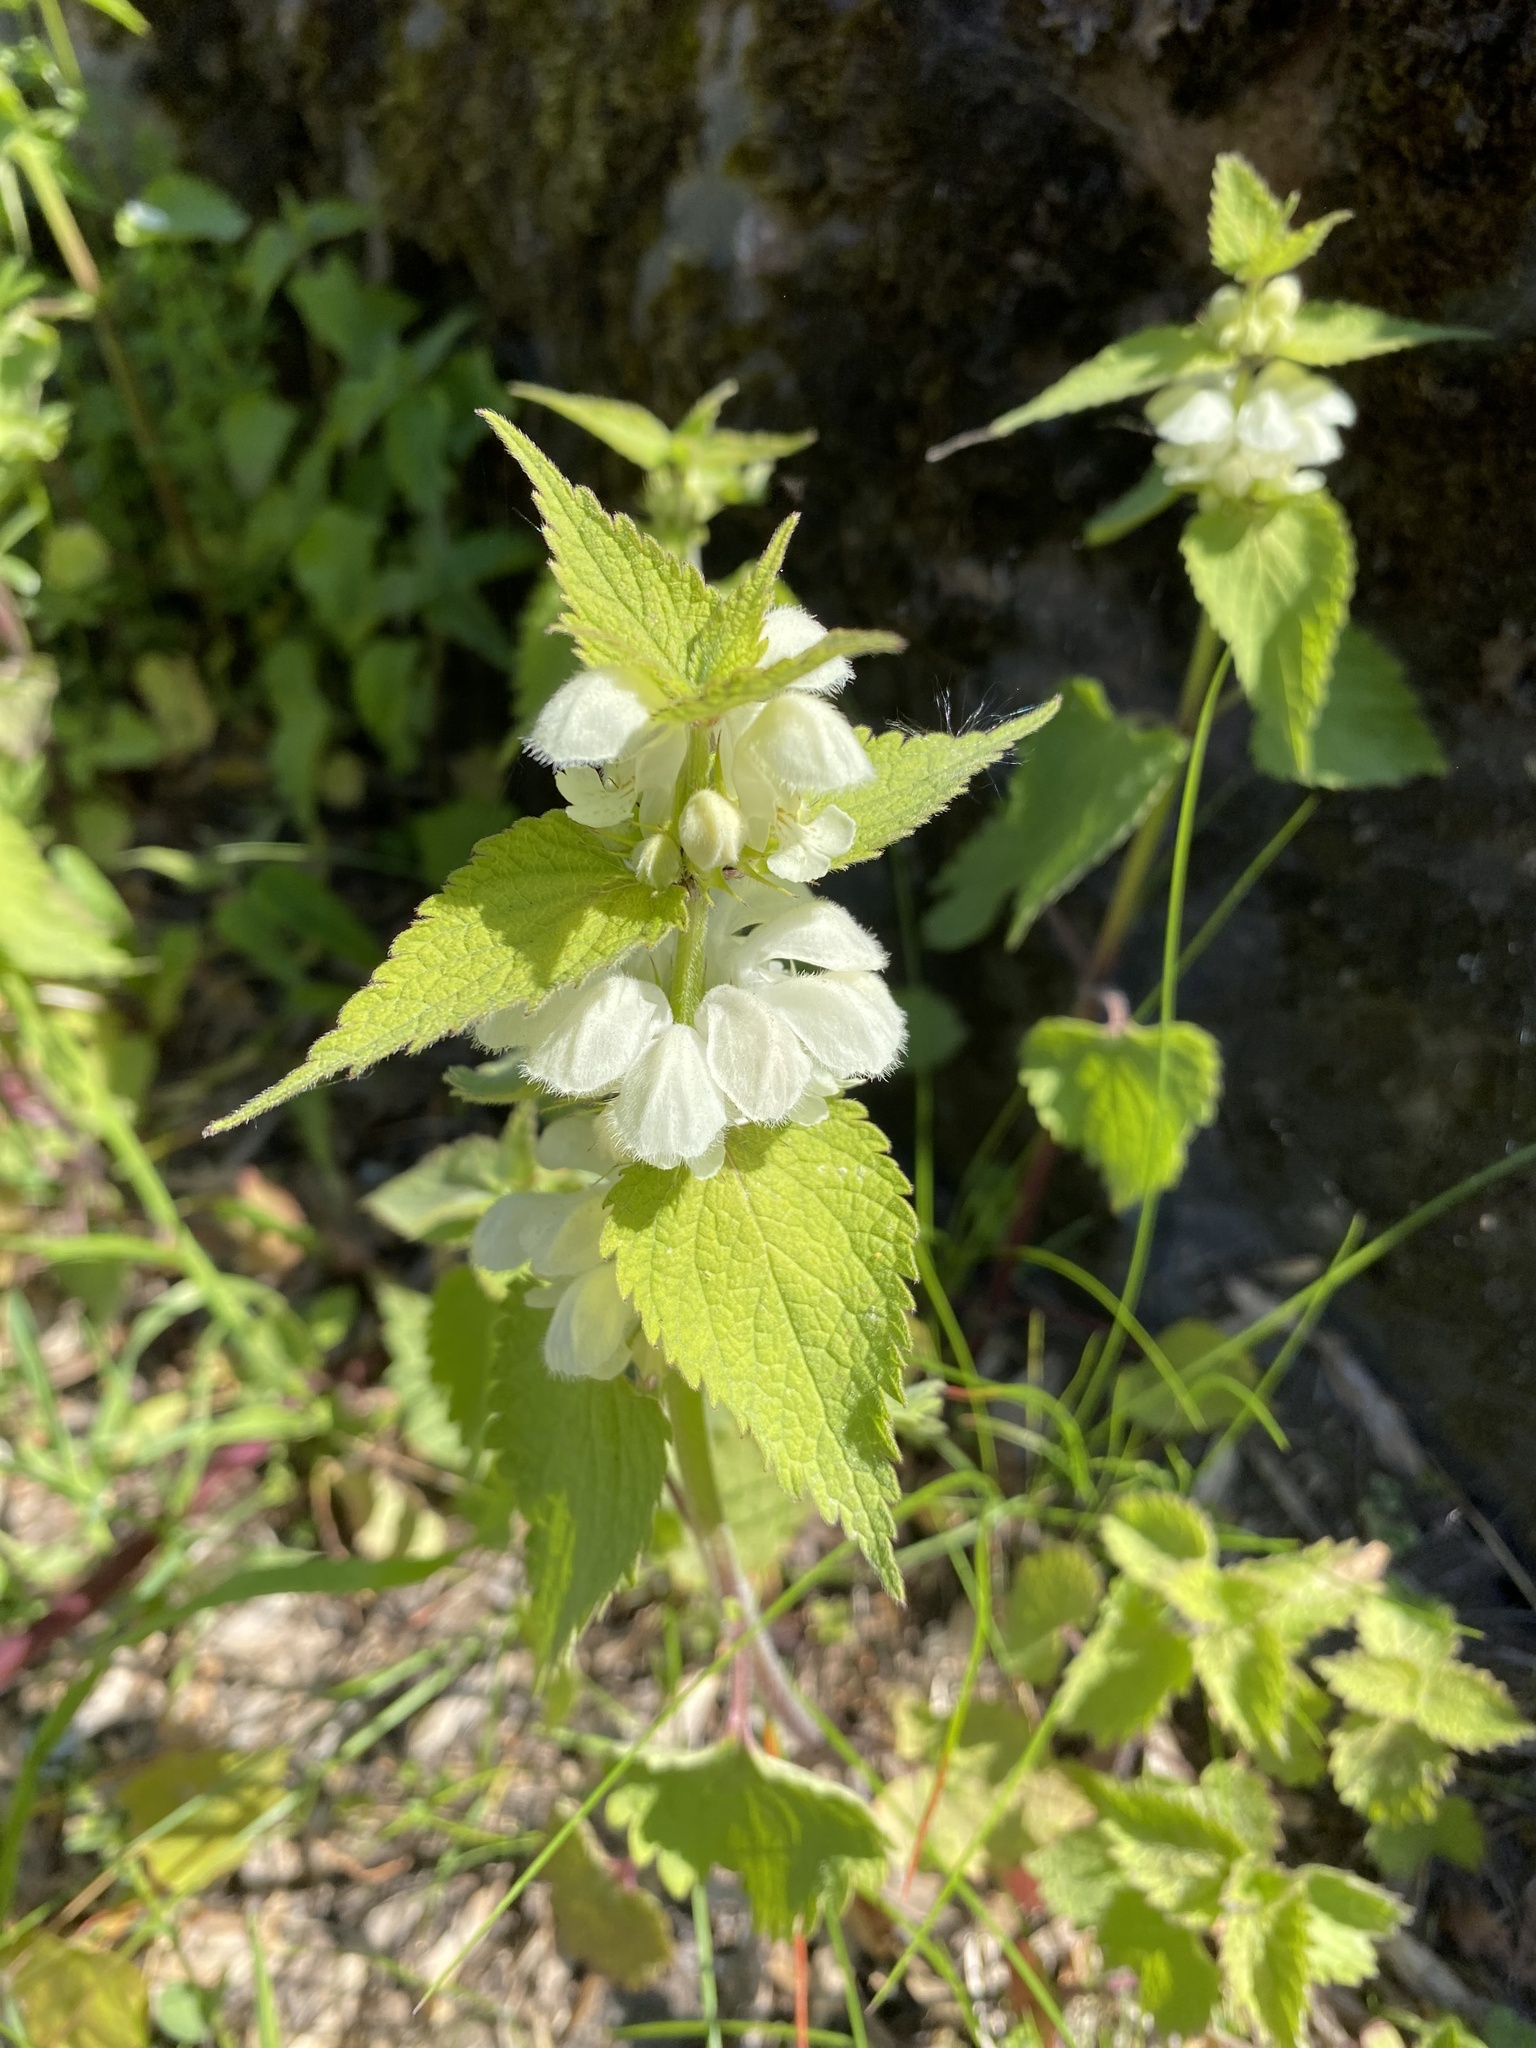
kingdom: Plantae
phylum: Tracheophyta
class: Magnoliopsida
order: Lamiales
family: Lamiaceae
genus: Lamium
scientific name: Lamium album
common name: White dead-nettle
